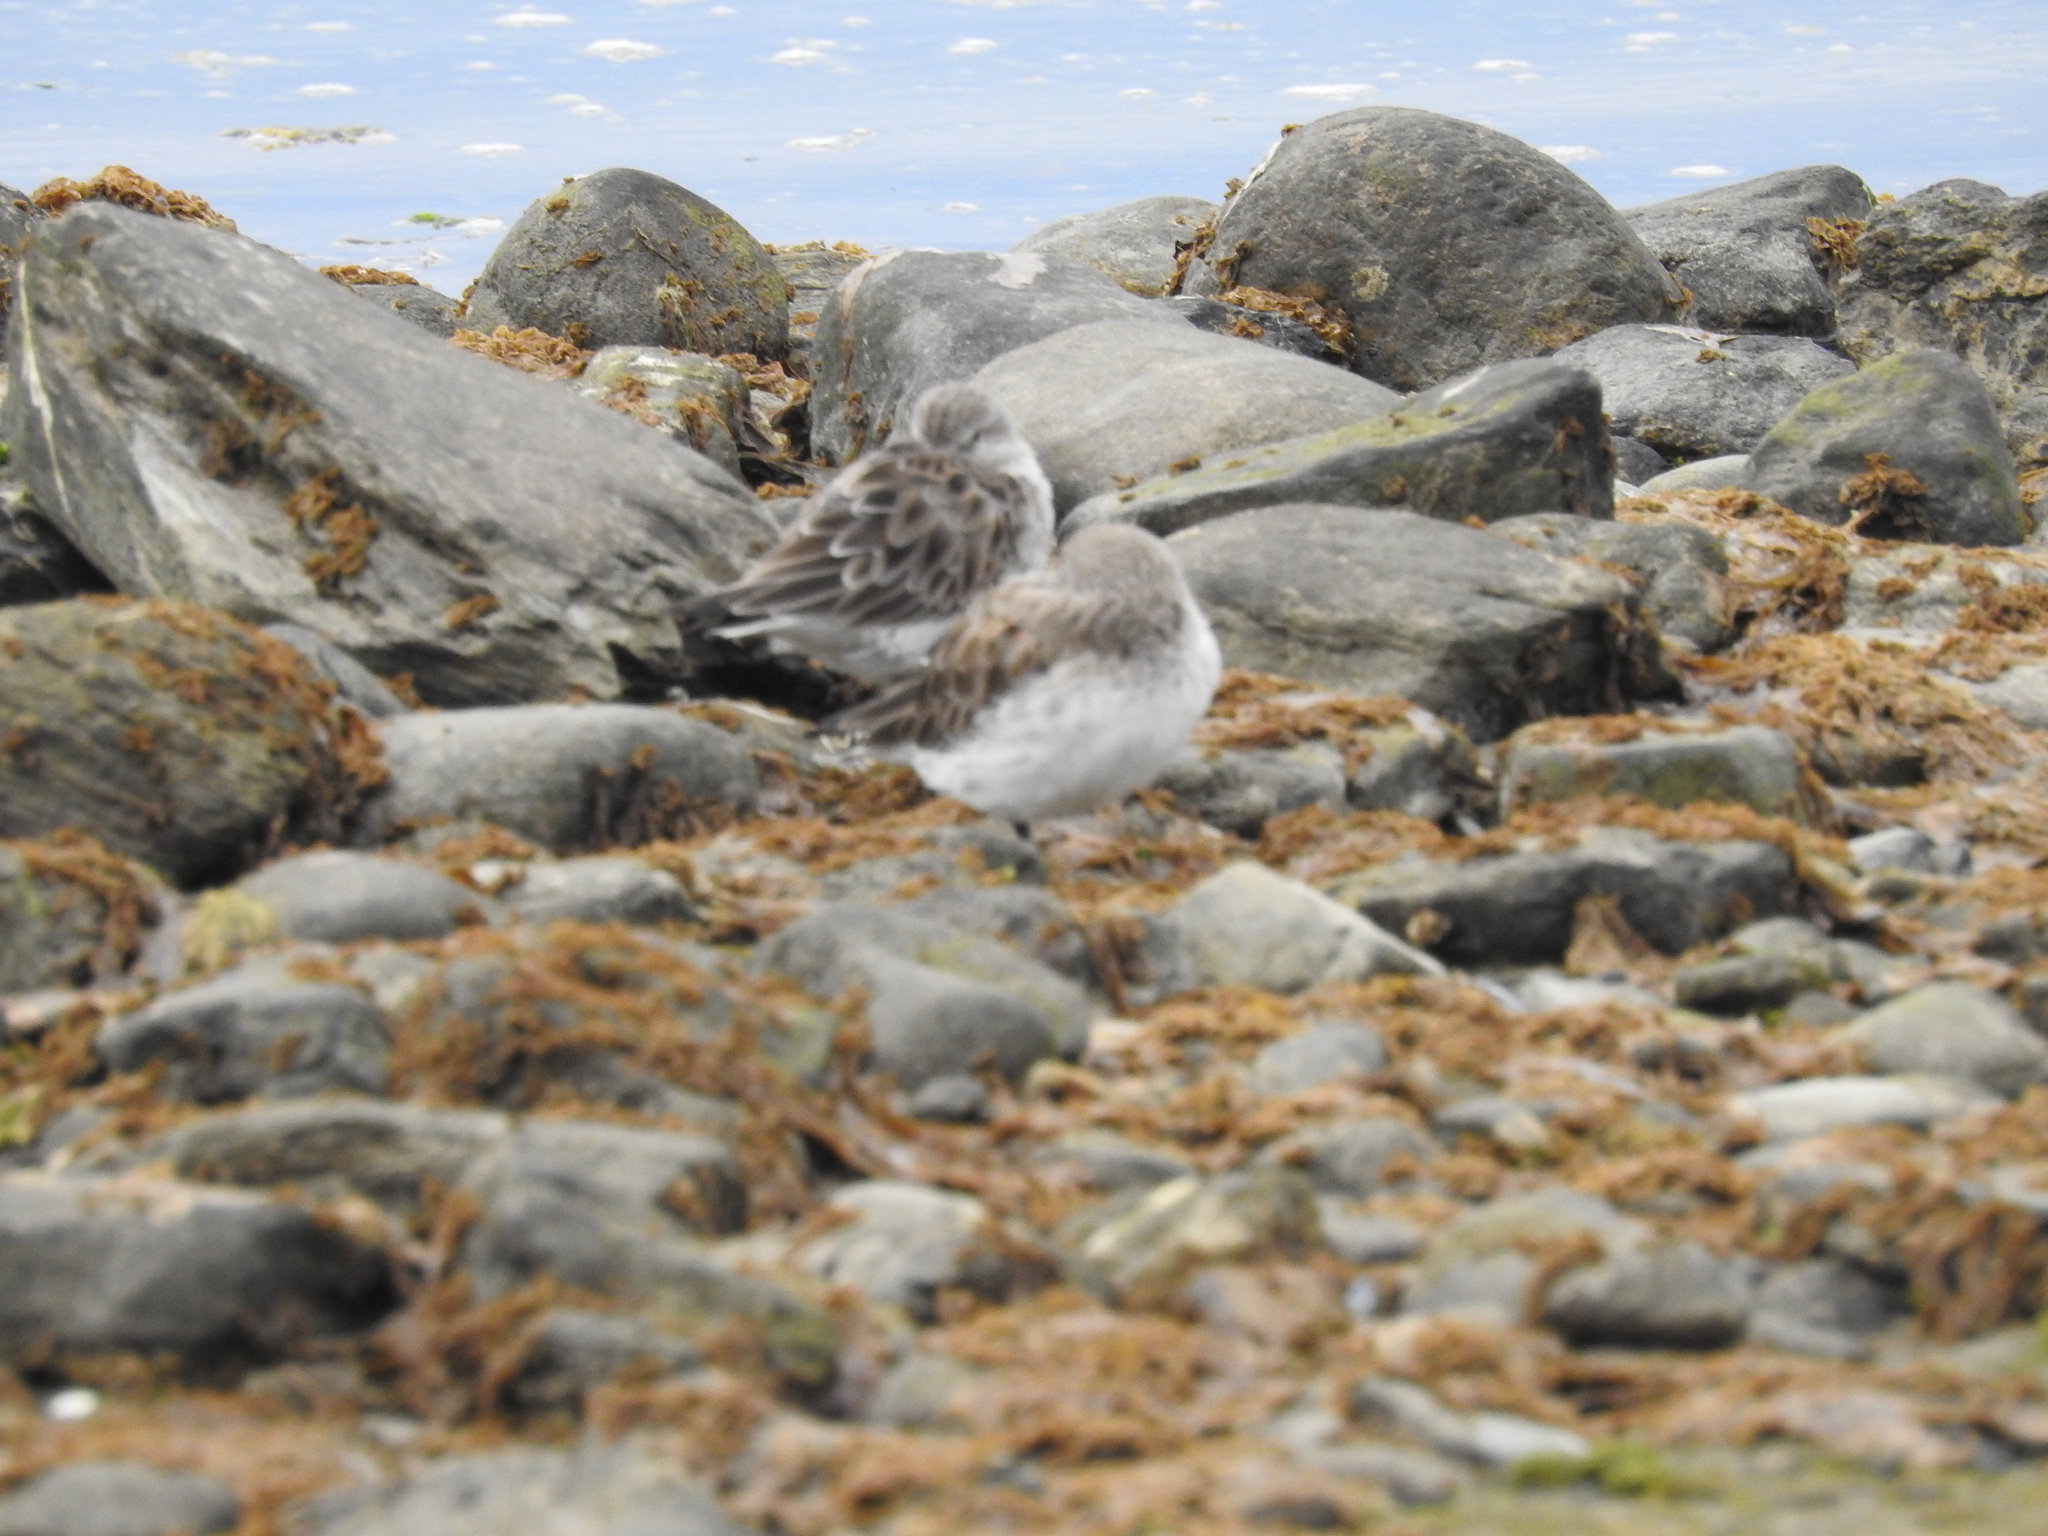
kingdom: Animalia
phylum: Chordata
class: Aves
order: Charadriiformes
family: Scolopacidae
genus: Calidris
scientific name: Calidris fuscicollis
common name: White-rumped sandpiper
